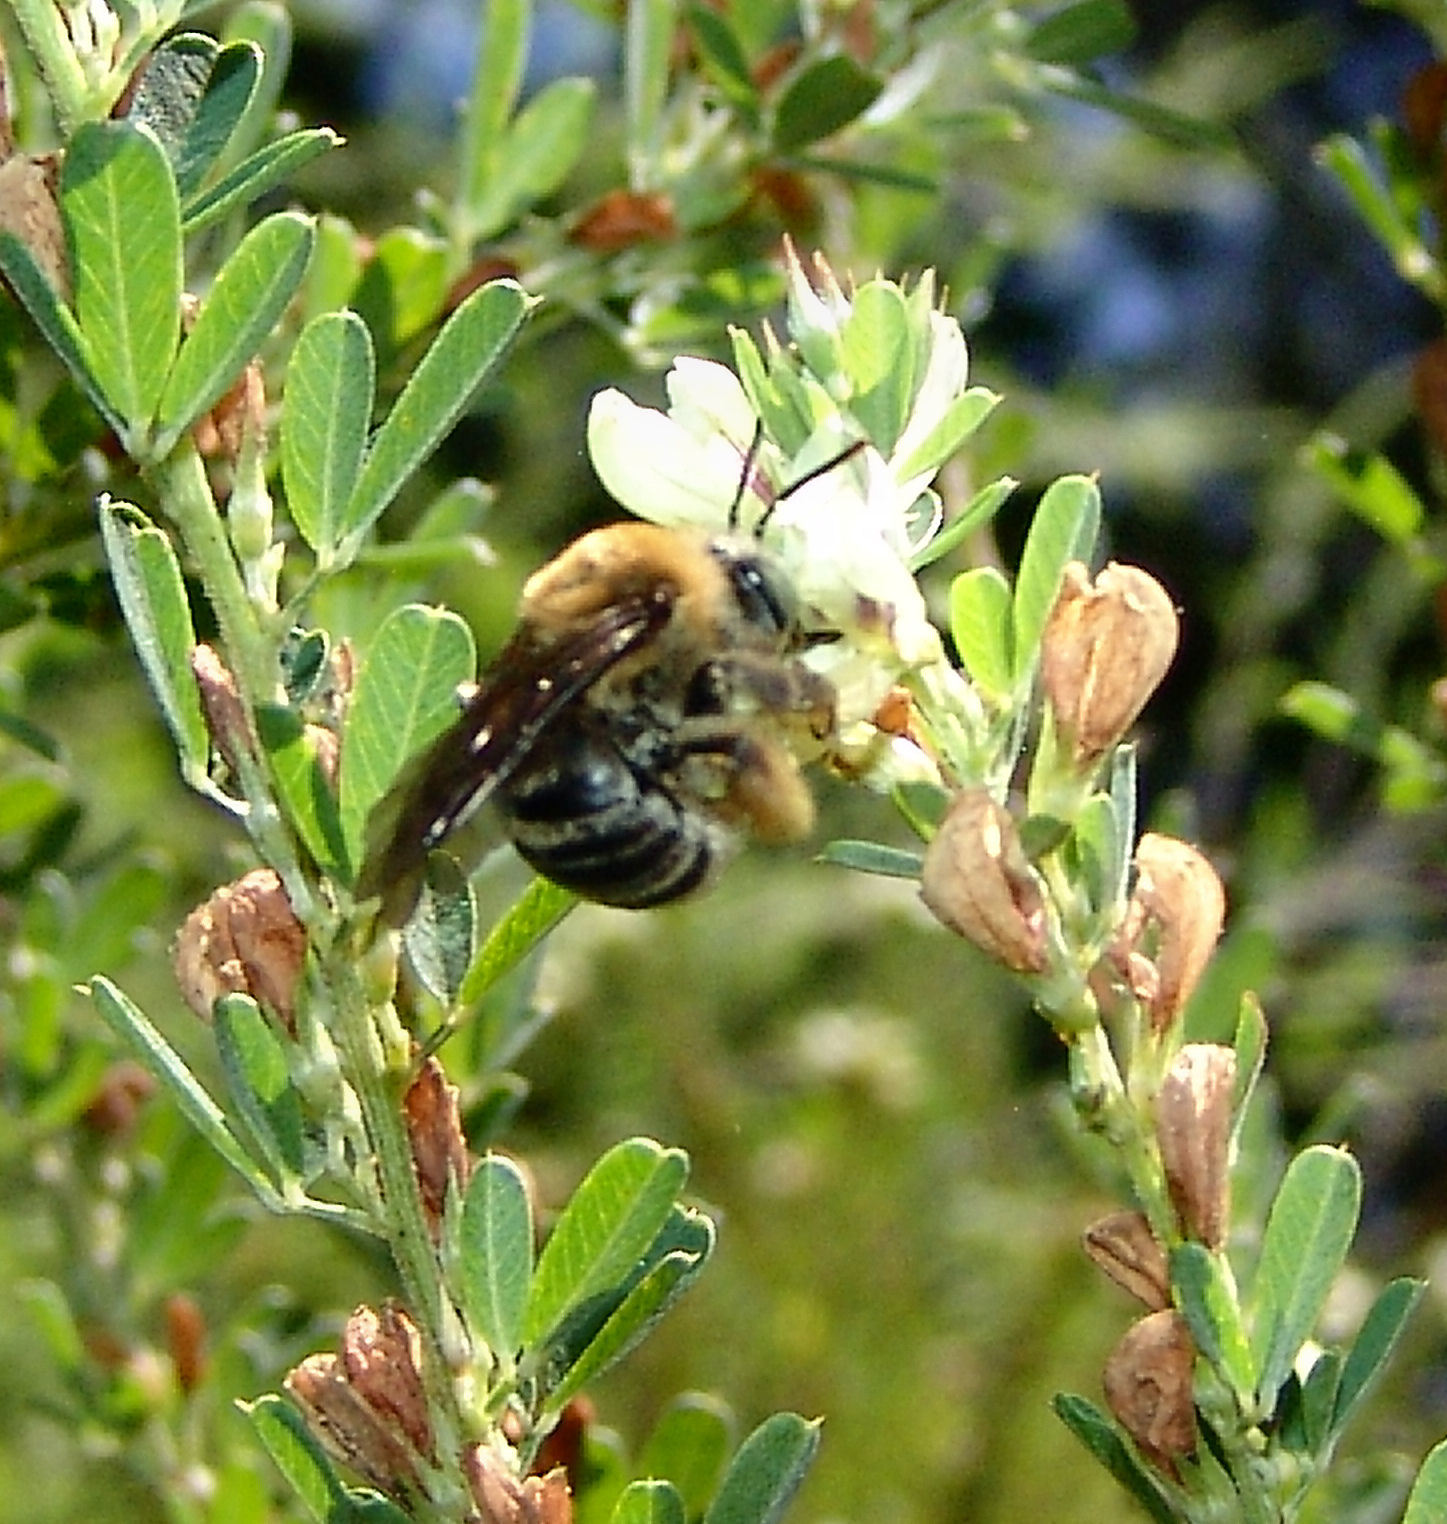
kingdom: Animalia
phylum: Arthropoda
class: Insecta
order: Hymenoptera
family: Apidae
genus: Melissodes
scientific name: Melissodes comptoides
